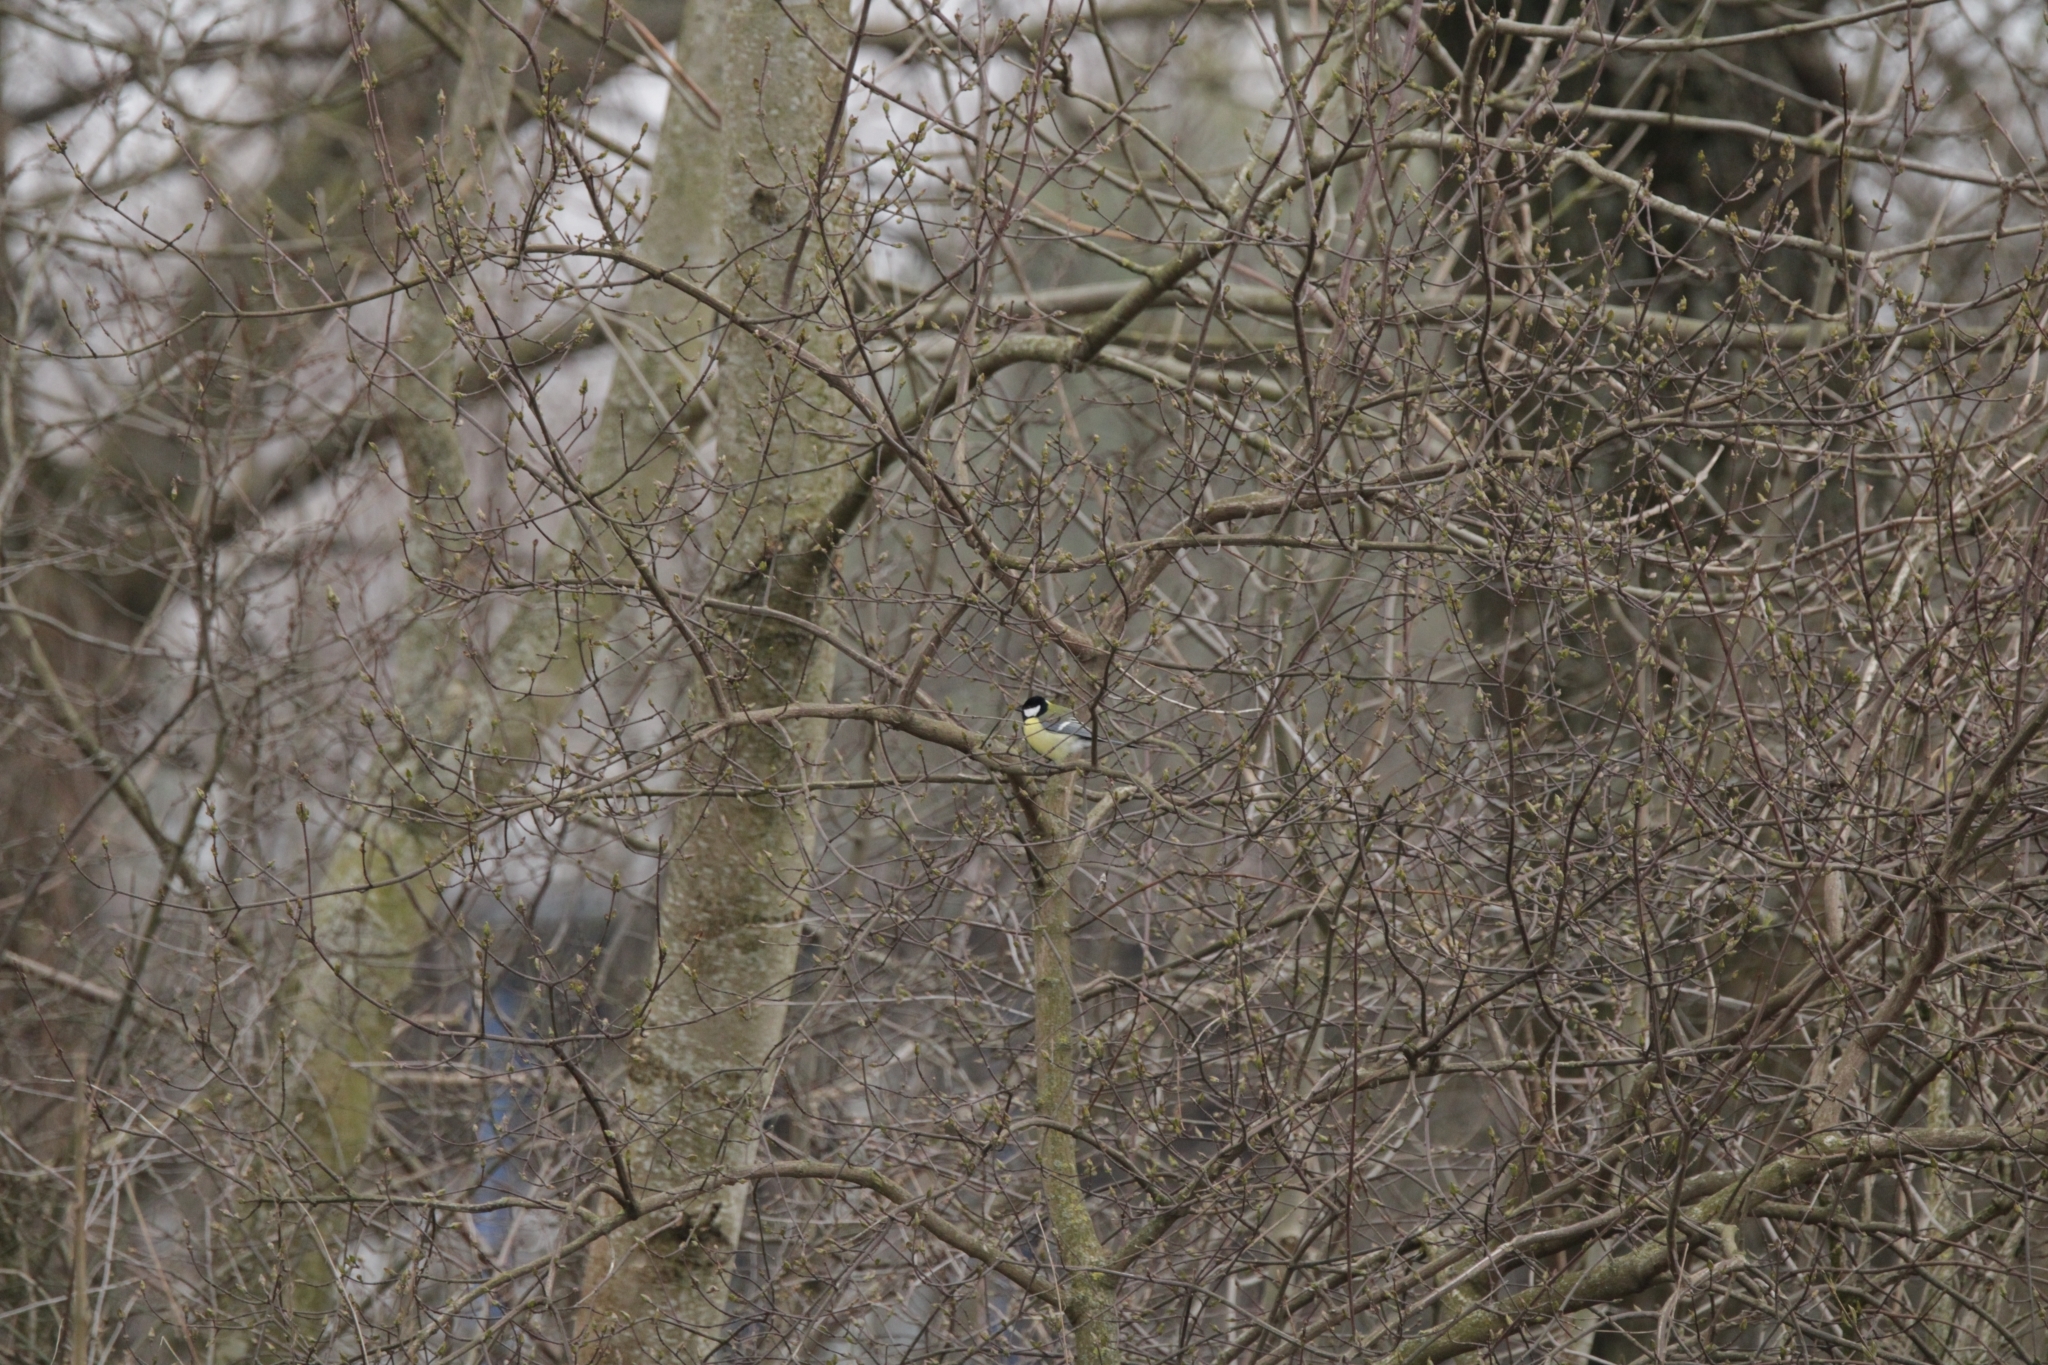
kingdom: Animalia
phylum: Chordata
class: Aves
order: Passeriformes
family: Paridae
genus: Parus
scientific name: Parus major
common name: Great tit
